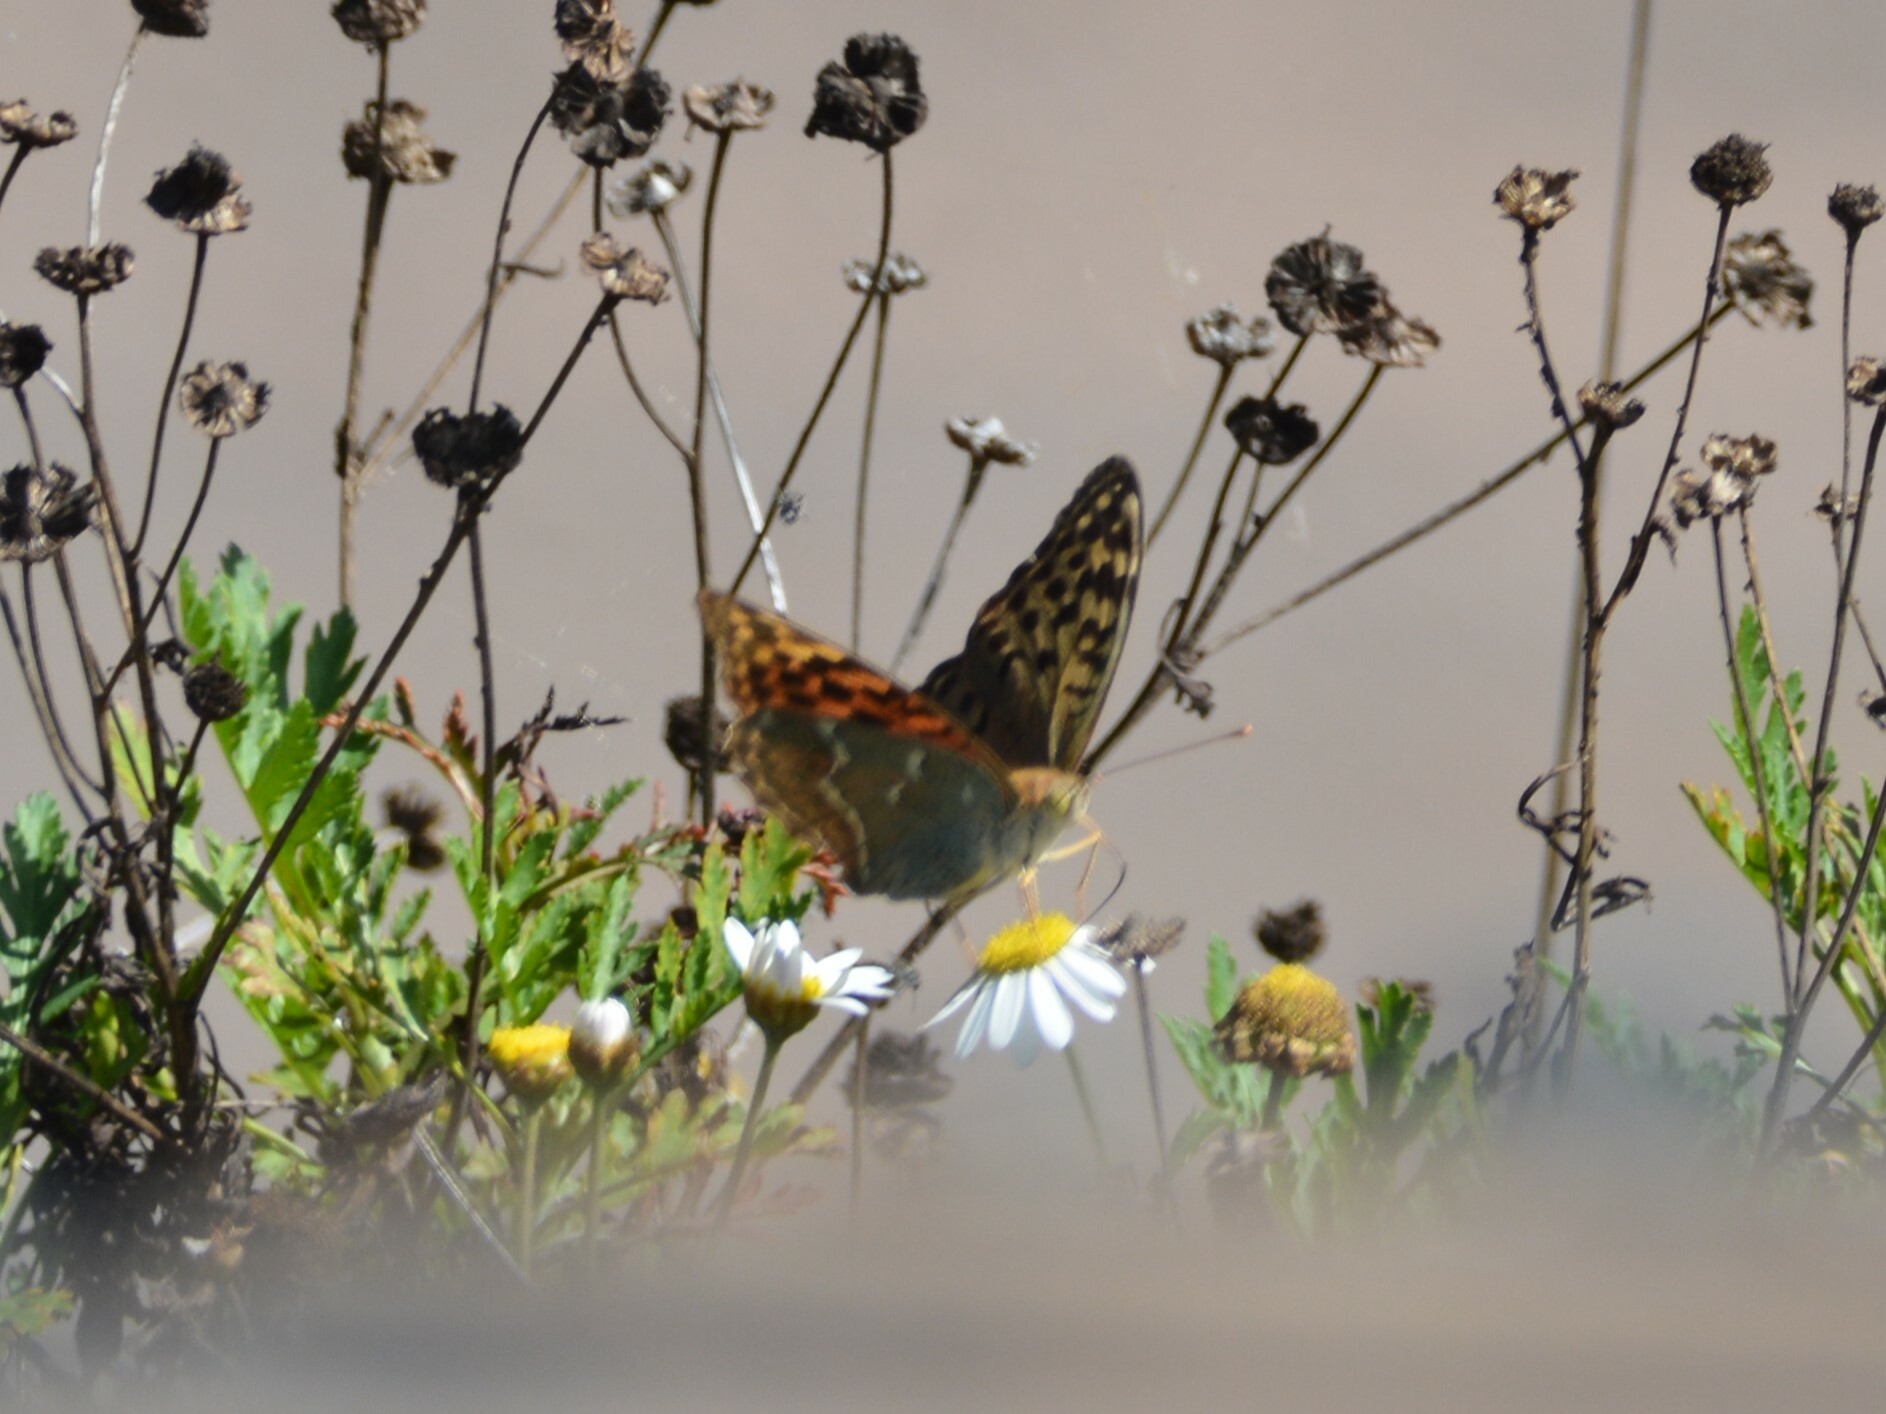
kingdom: Animalia
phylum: Arthropoda
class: Insecta
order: Lepidoptera
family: Nymphalidae
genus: Damora
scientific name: Damora pandora
